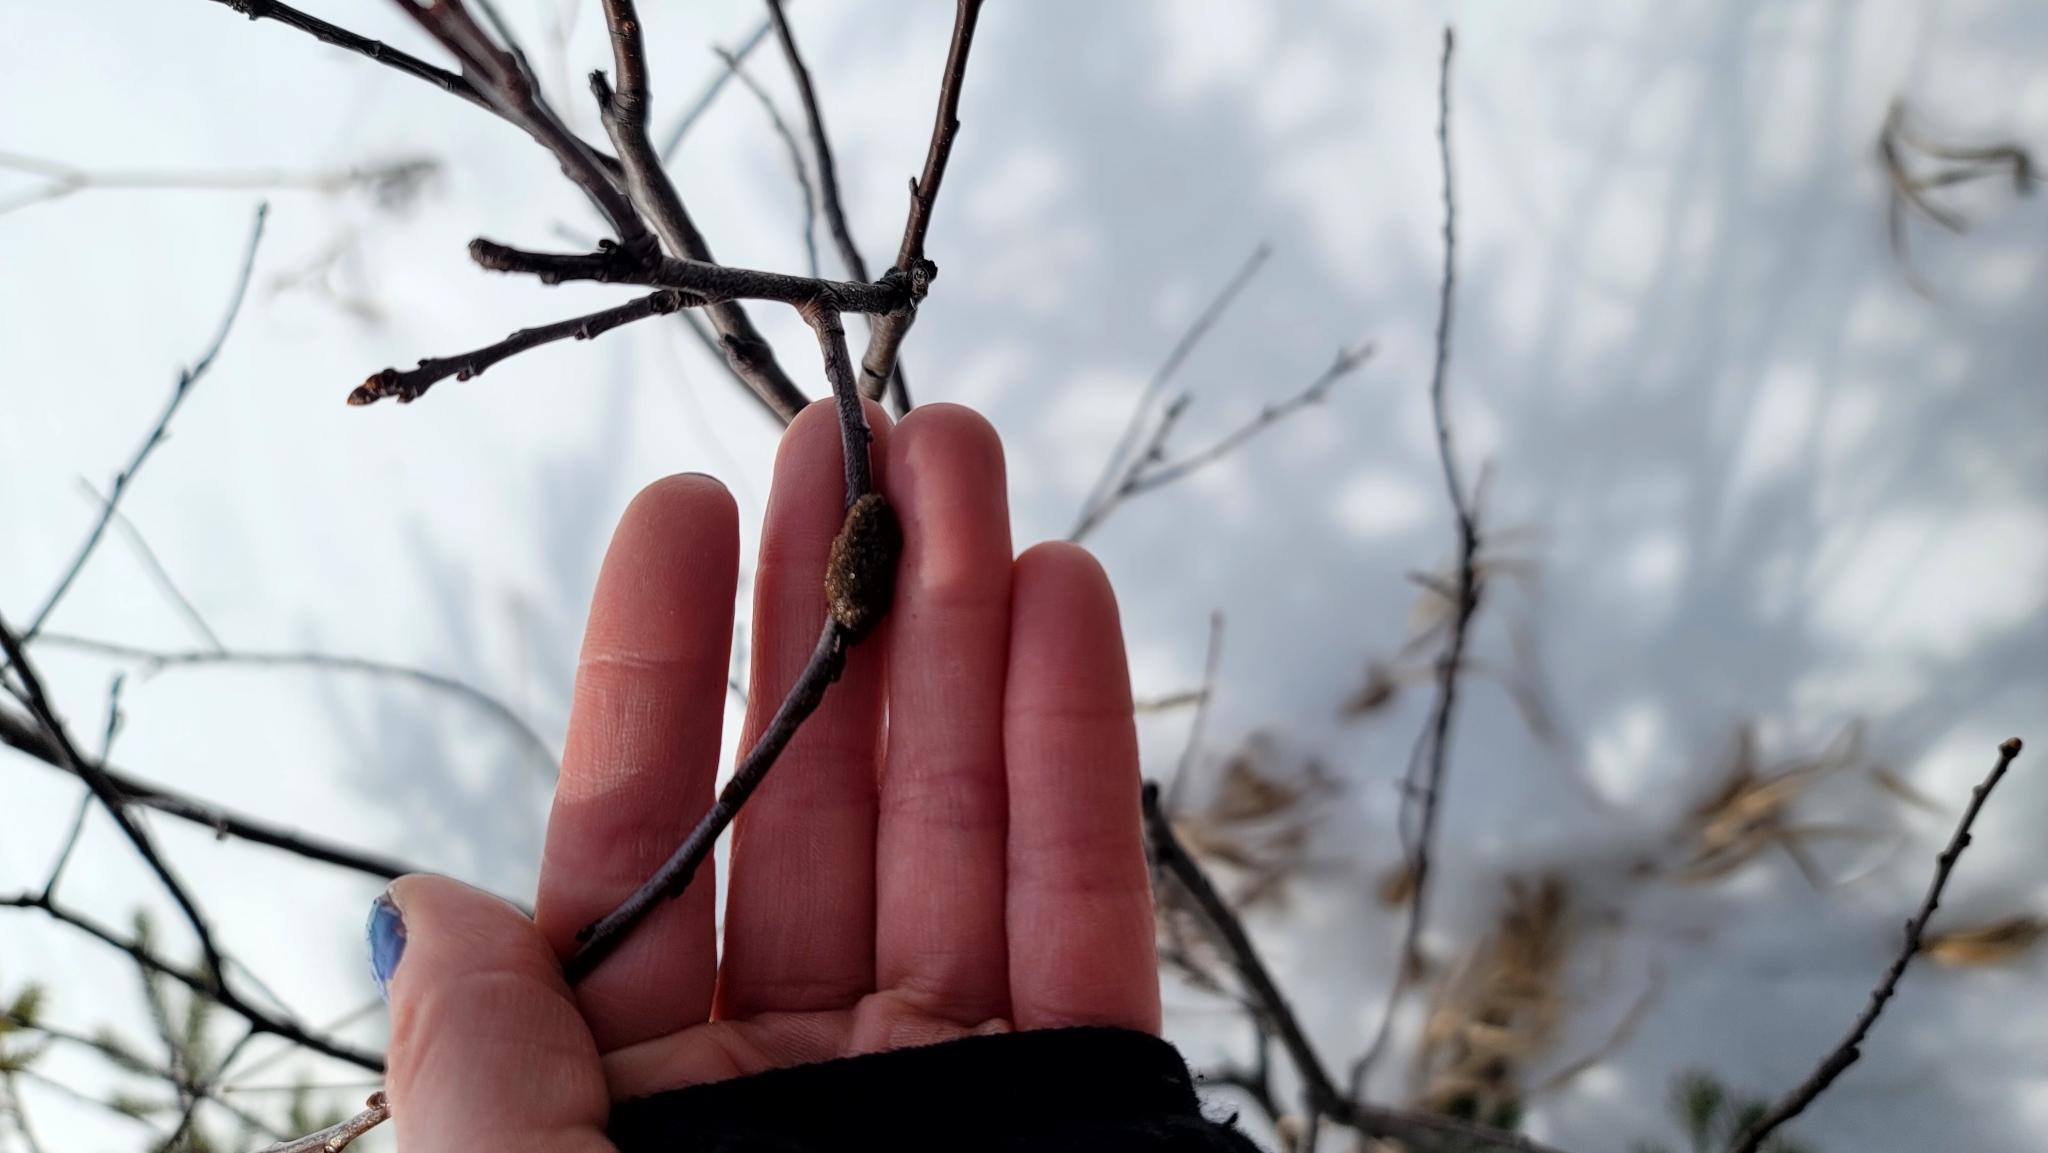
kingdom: Animalia
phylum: Arthropoda
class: Insecta
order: Lepidoptera
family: Lasiocampidae
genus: Malacosoma
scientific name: Malacosoma americana
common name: Eastern tent caterpillar moth
